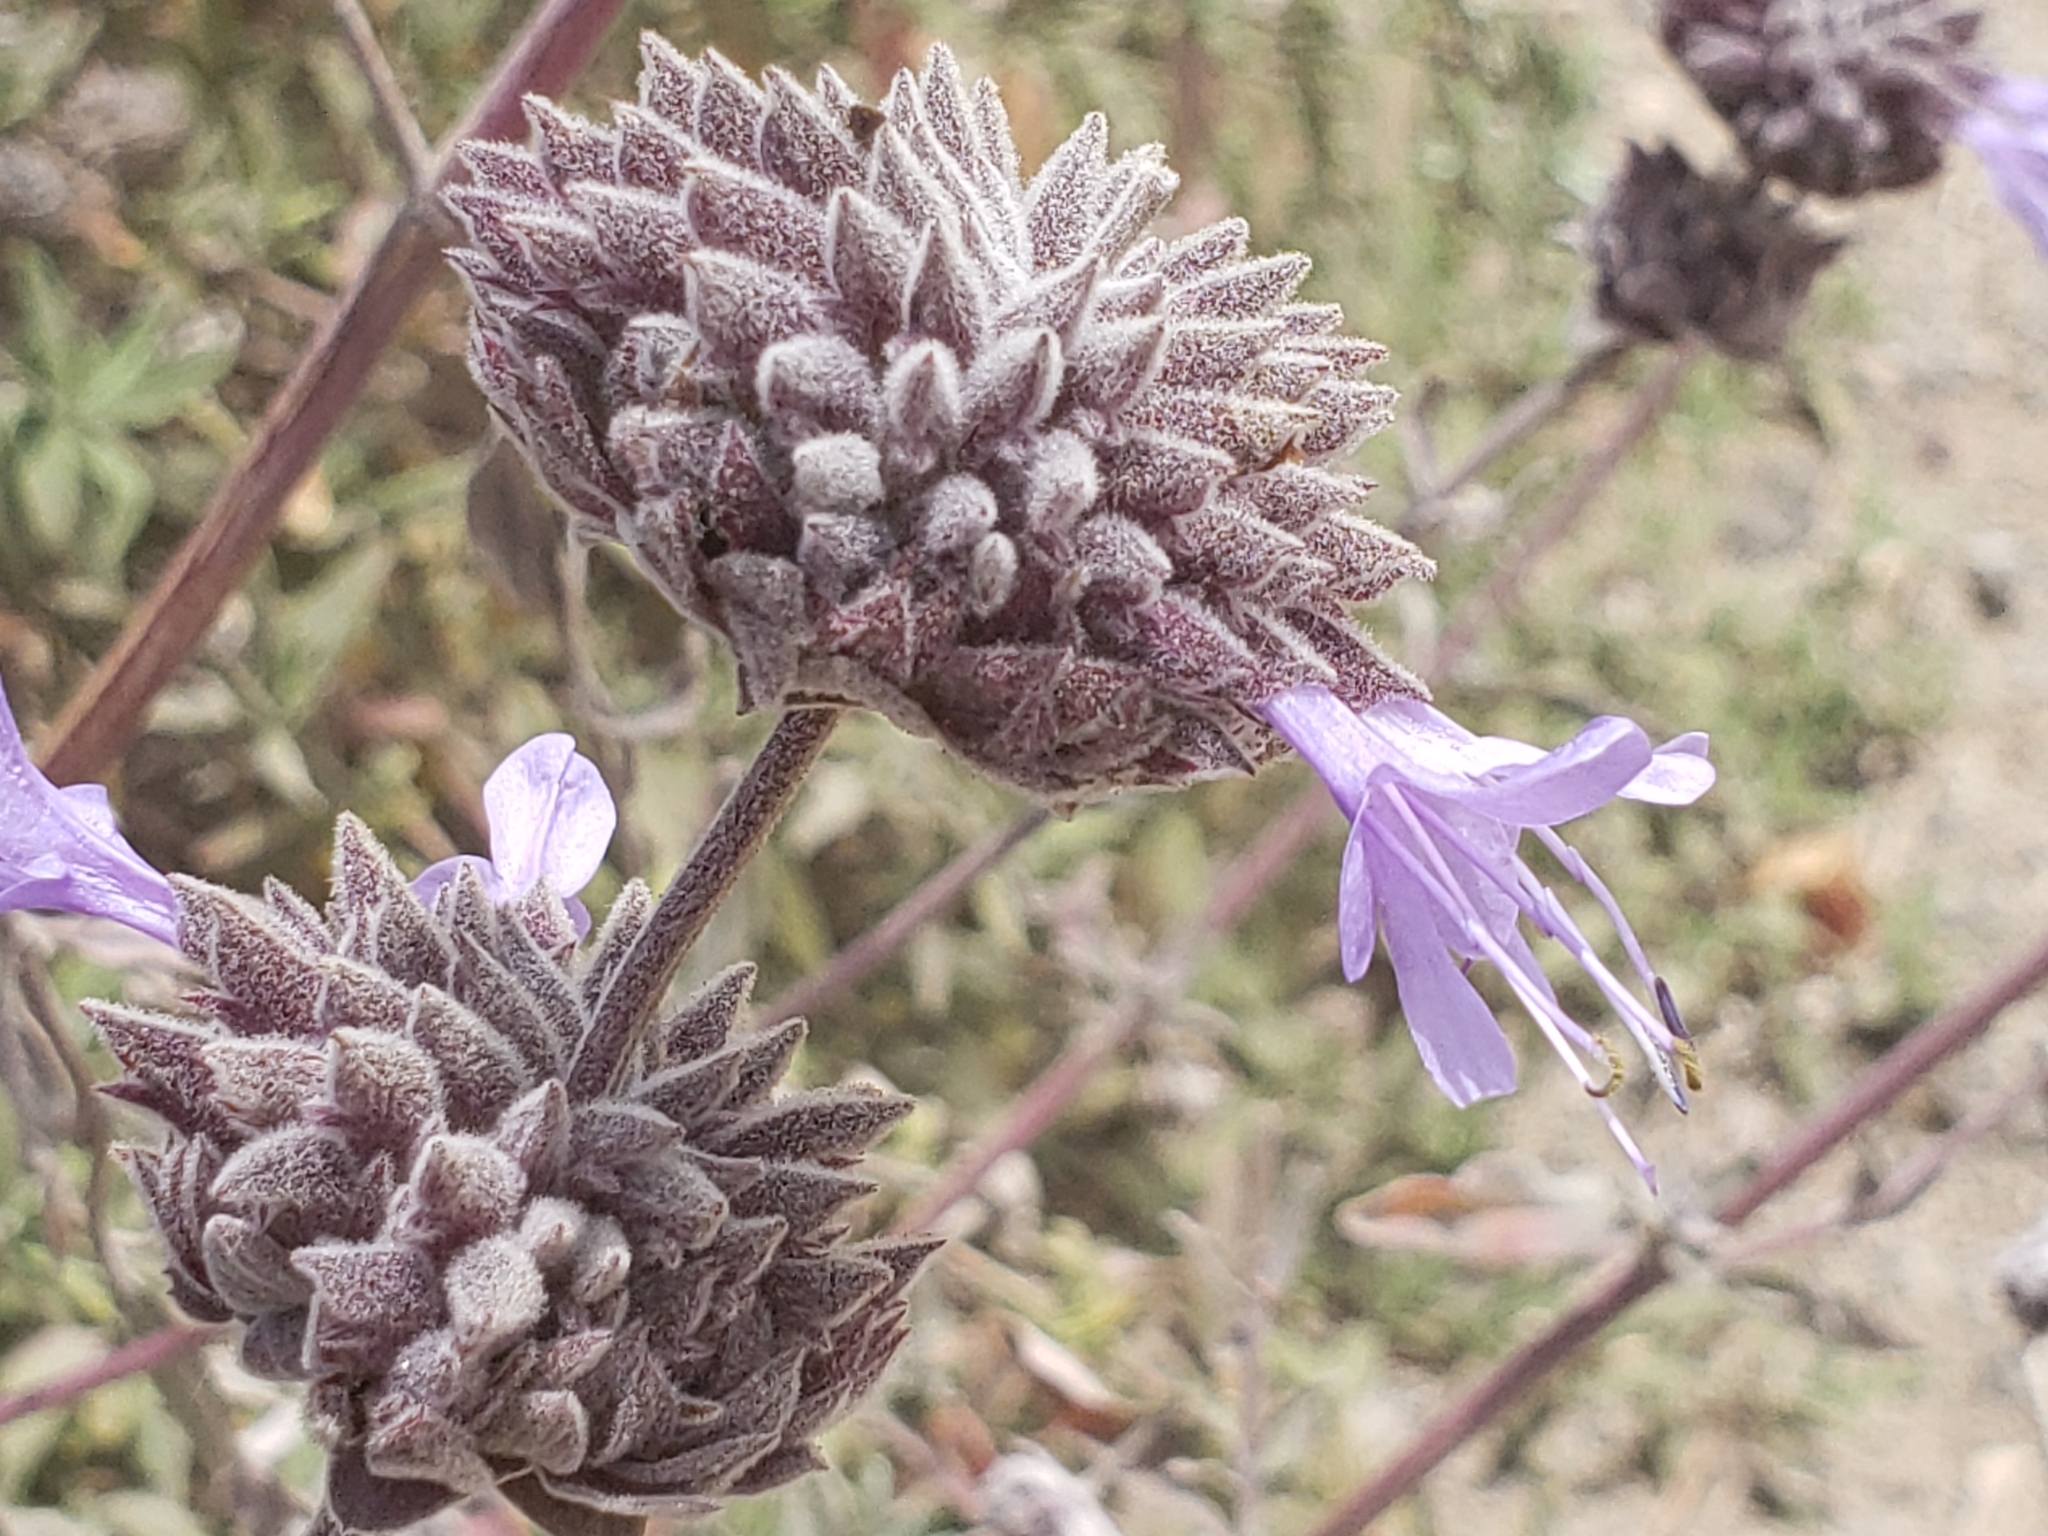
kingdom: Plantae
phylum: Tracheophyta
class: Magnoliopsida
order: Lamiales
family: Lamiaceae
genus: Salvia
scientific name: Salvia leucophylla
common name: Purple sage
